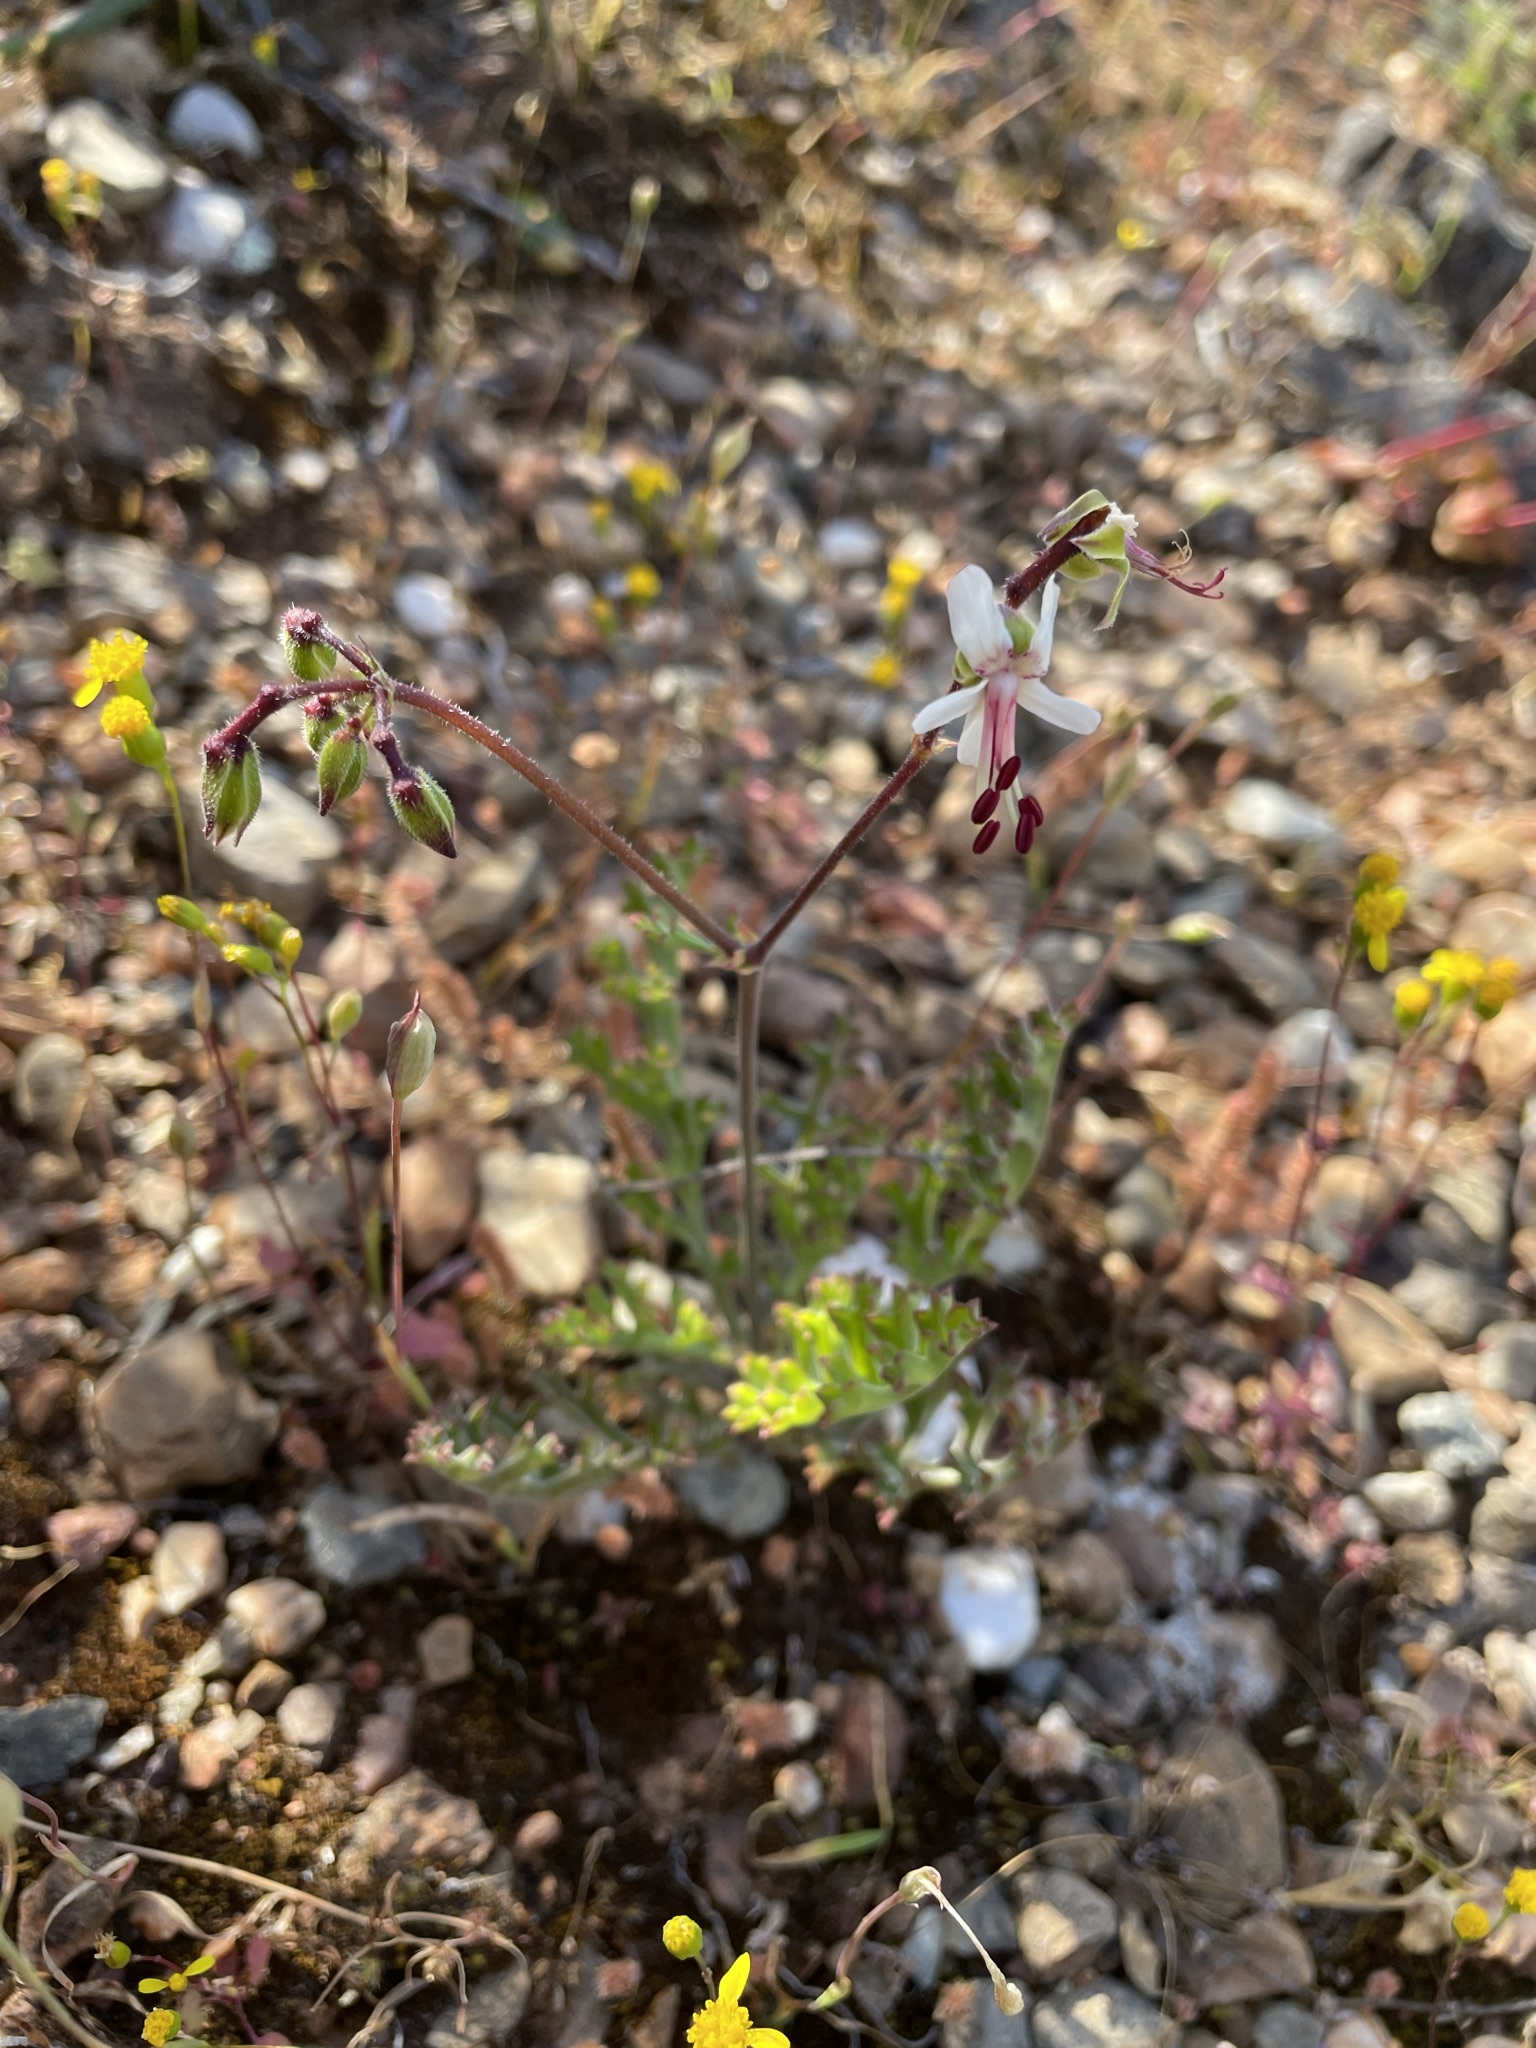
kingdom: Plantae
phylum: Tracheophyta
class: Magnoliopsida
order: Geraniales
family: Geraniaceae
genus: Pelargonium
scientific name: Pelargonium karooescens
